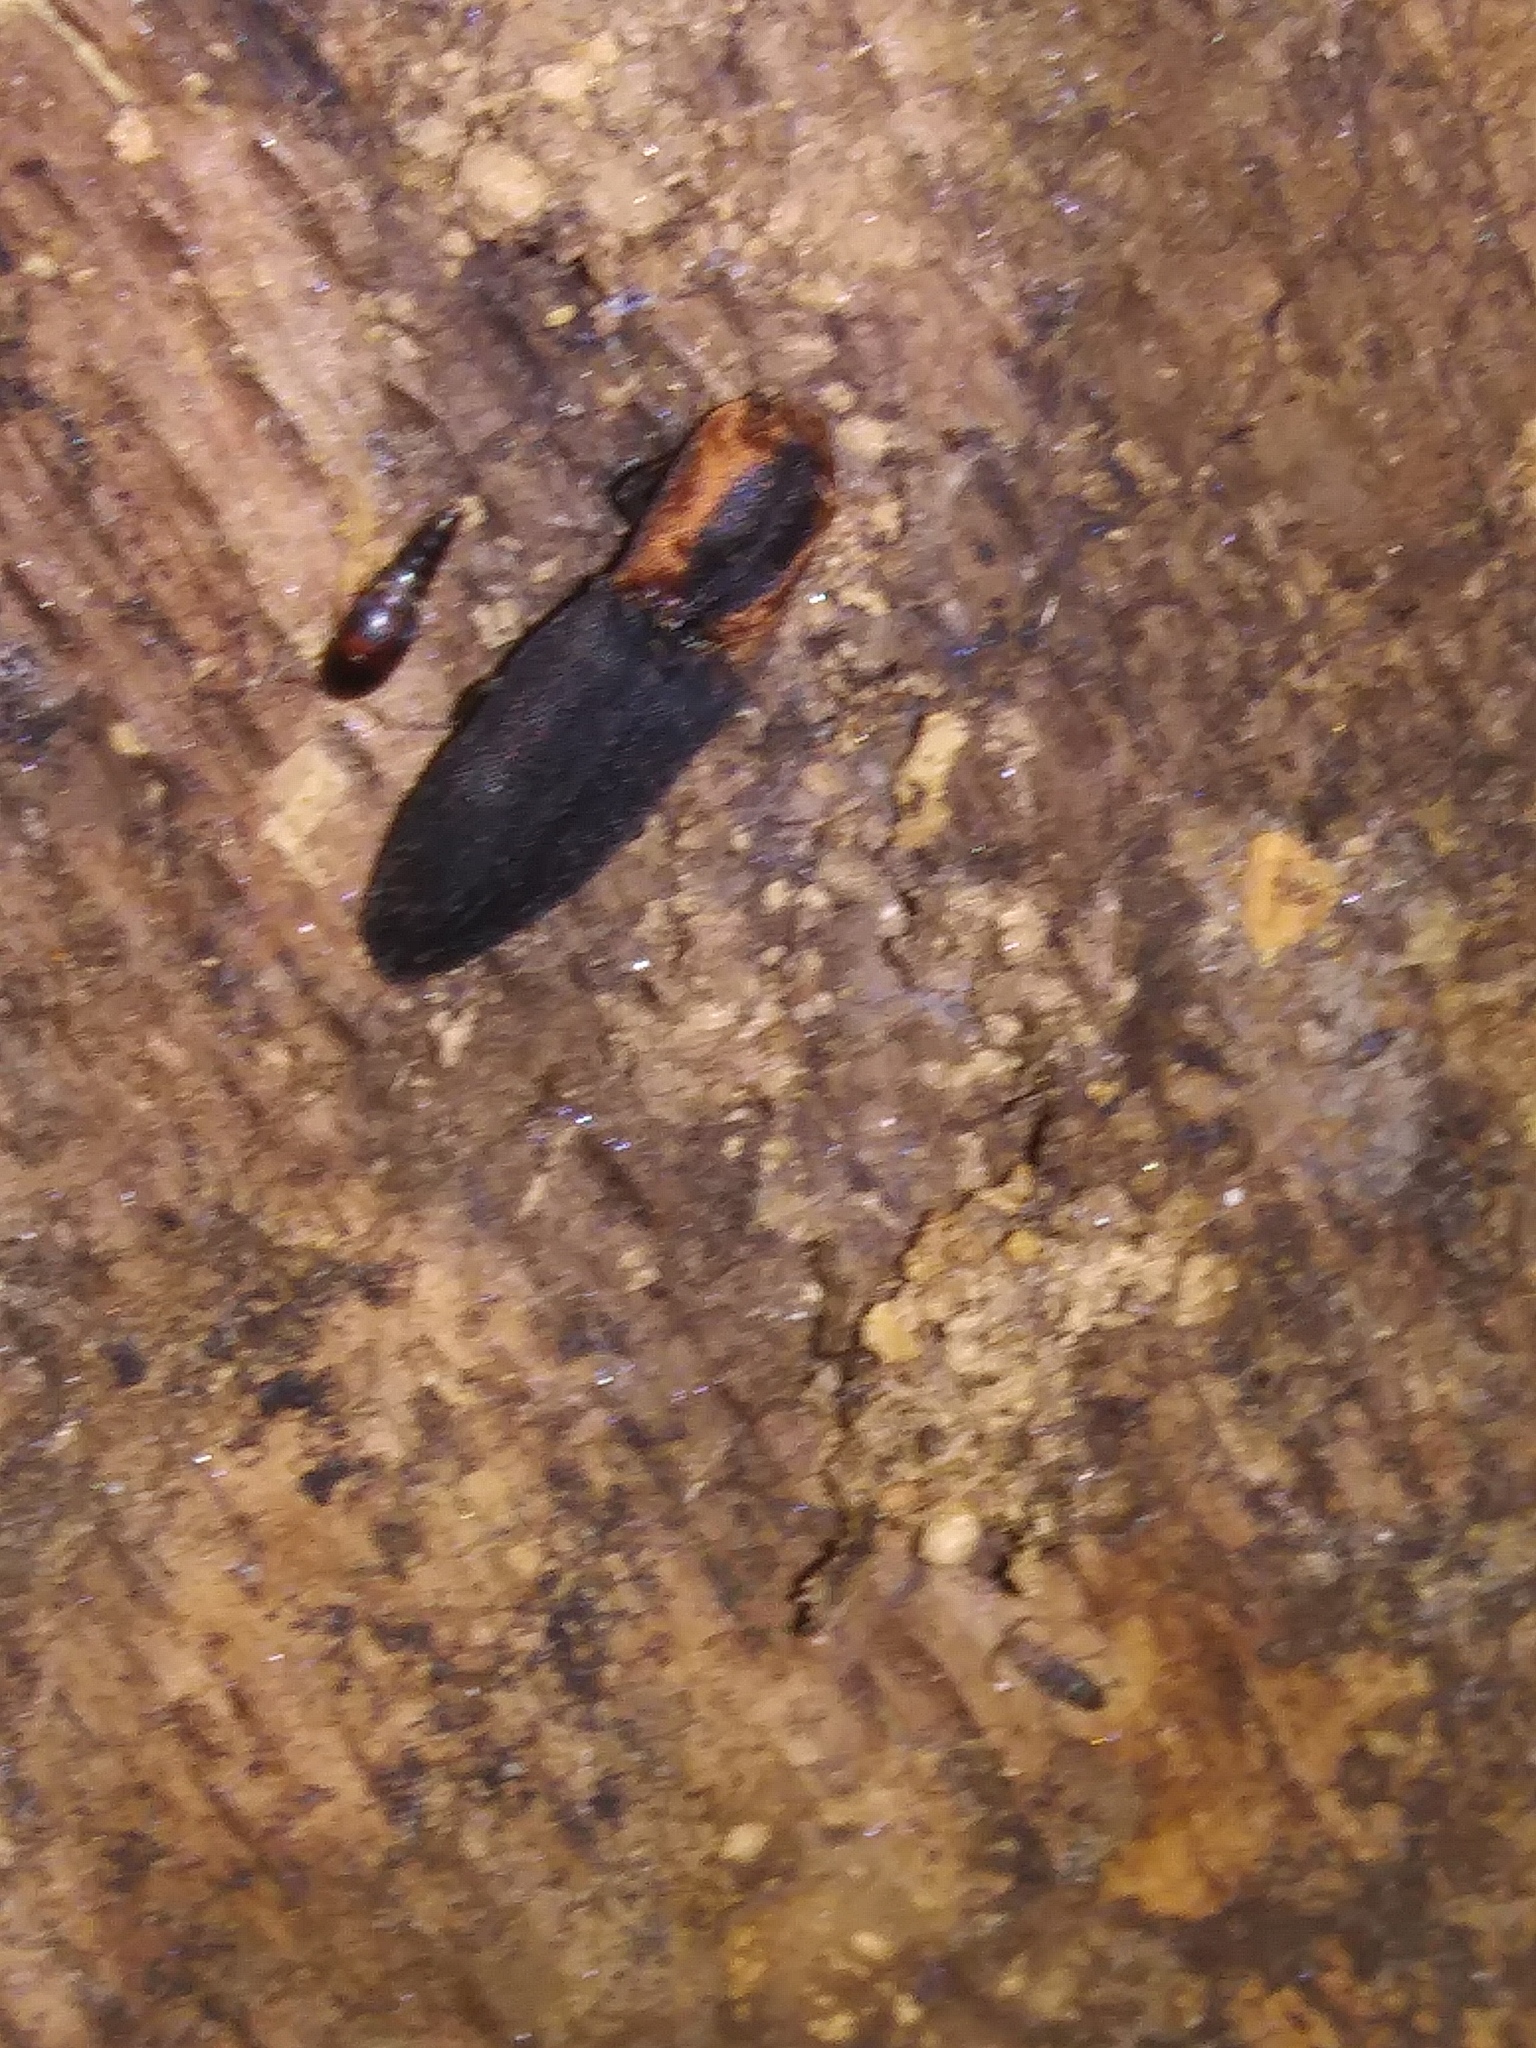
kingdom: Animalia
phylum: Arthropoda
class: Insecta
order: Coleoptera
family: Elateridae
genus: Lacon
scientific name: Lacon discoideus
